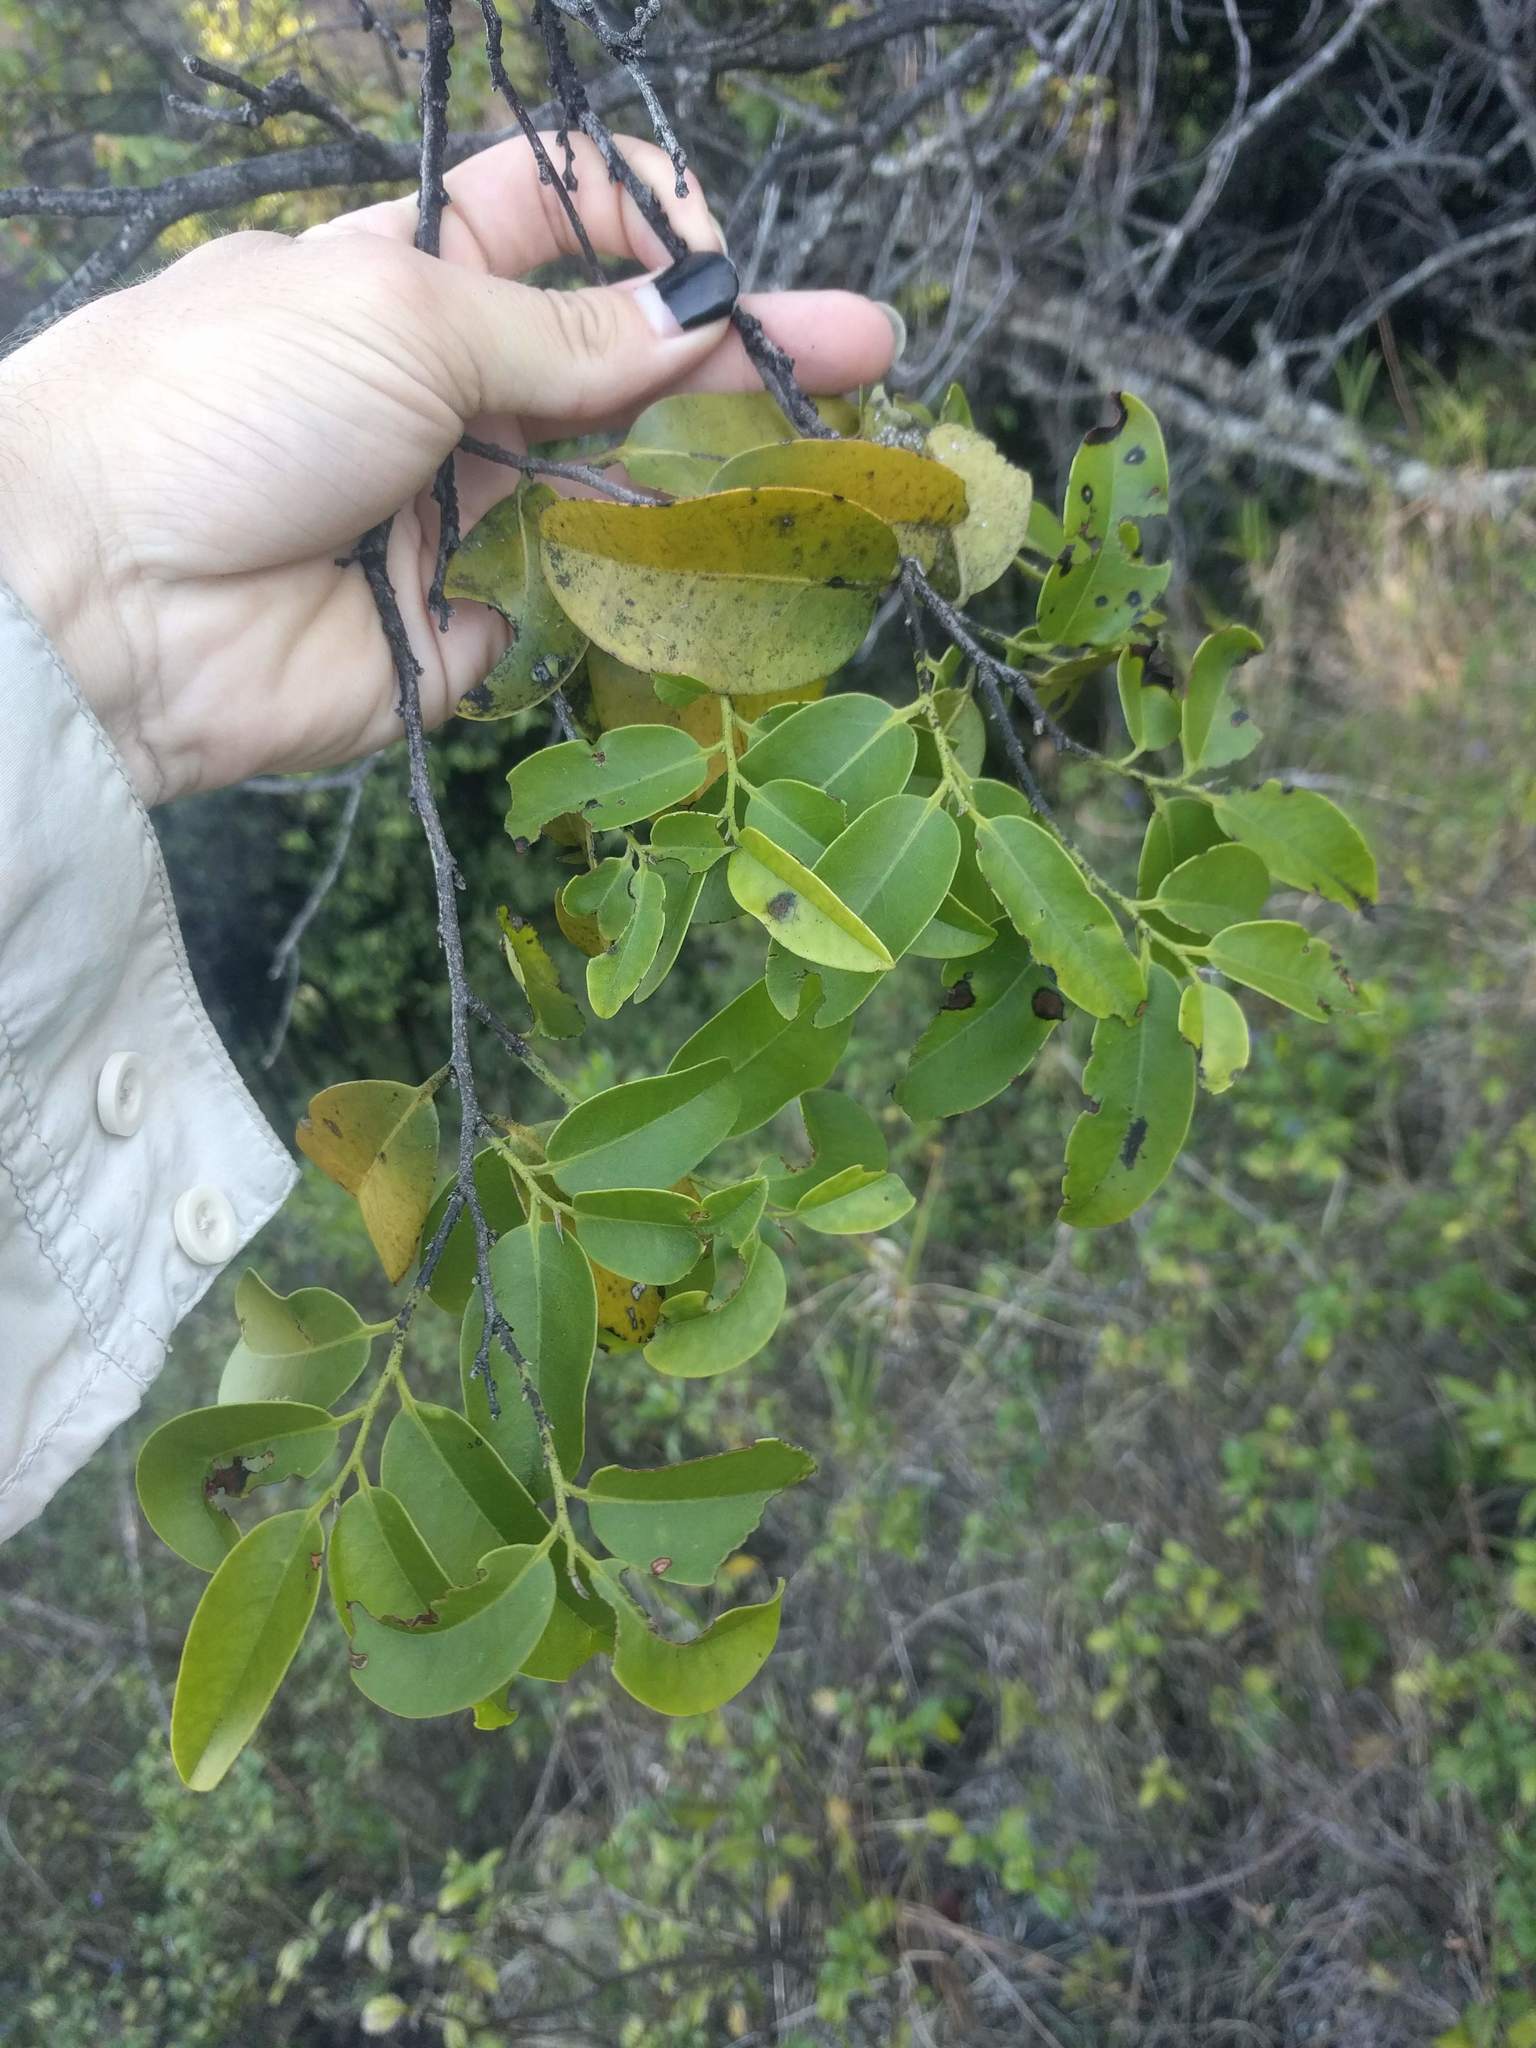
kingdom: Plantae
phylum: Tracheophyta
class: Magnoliopsida
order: Ericales
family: Ebenaceae
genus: Diospyros
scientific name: Diospyros sandwicensis
